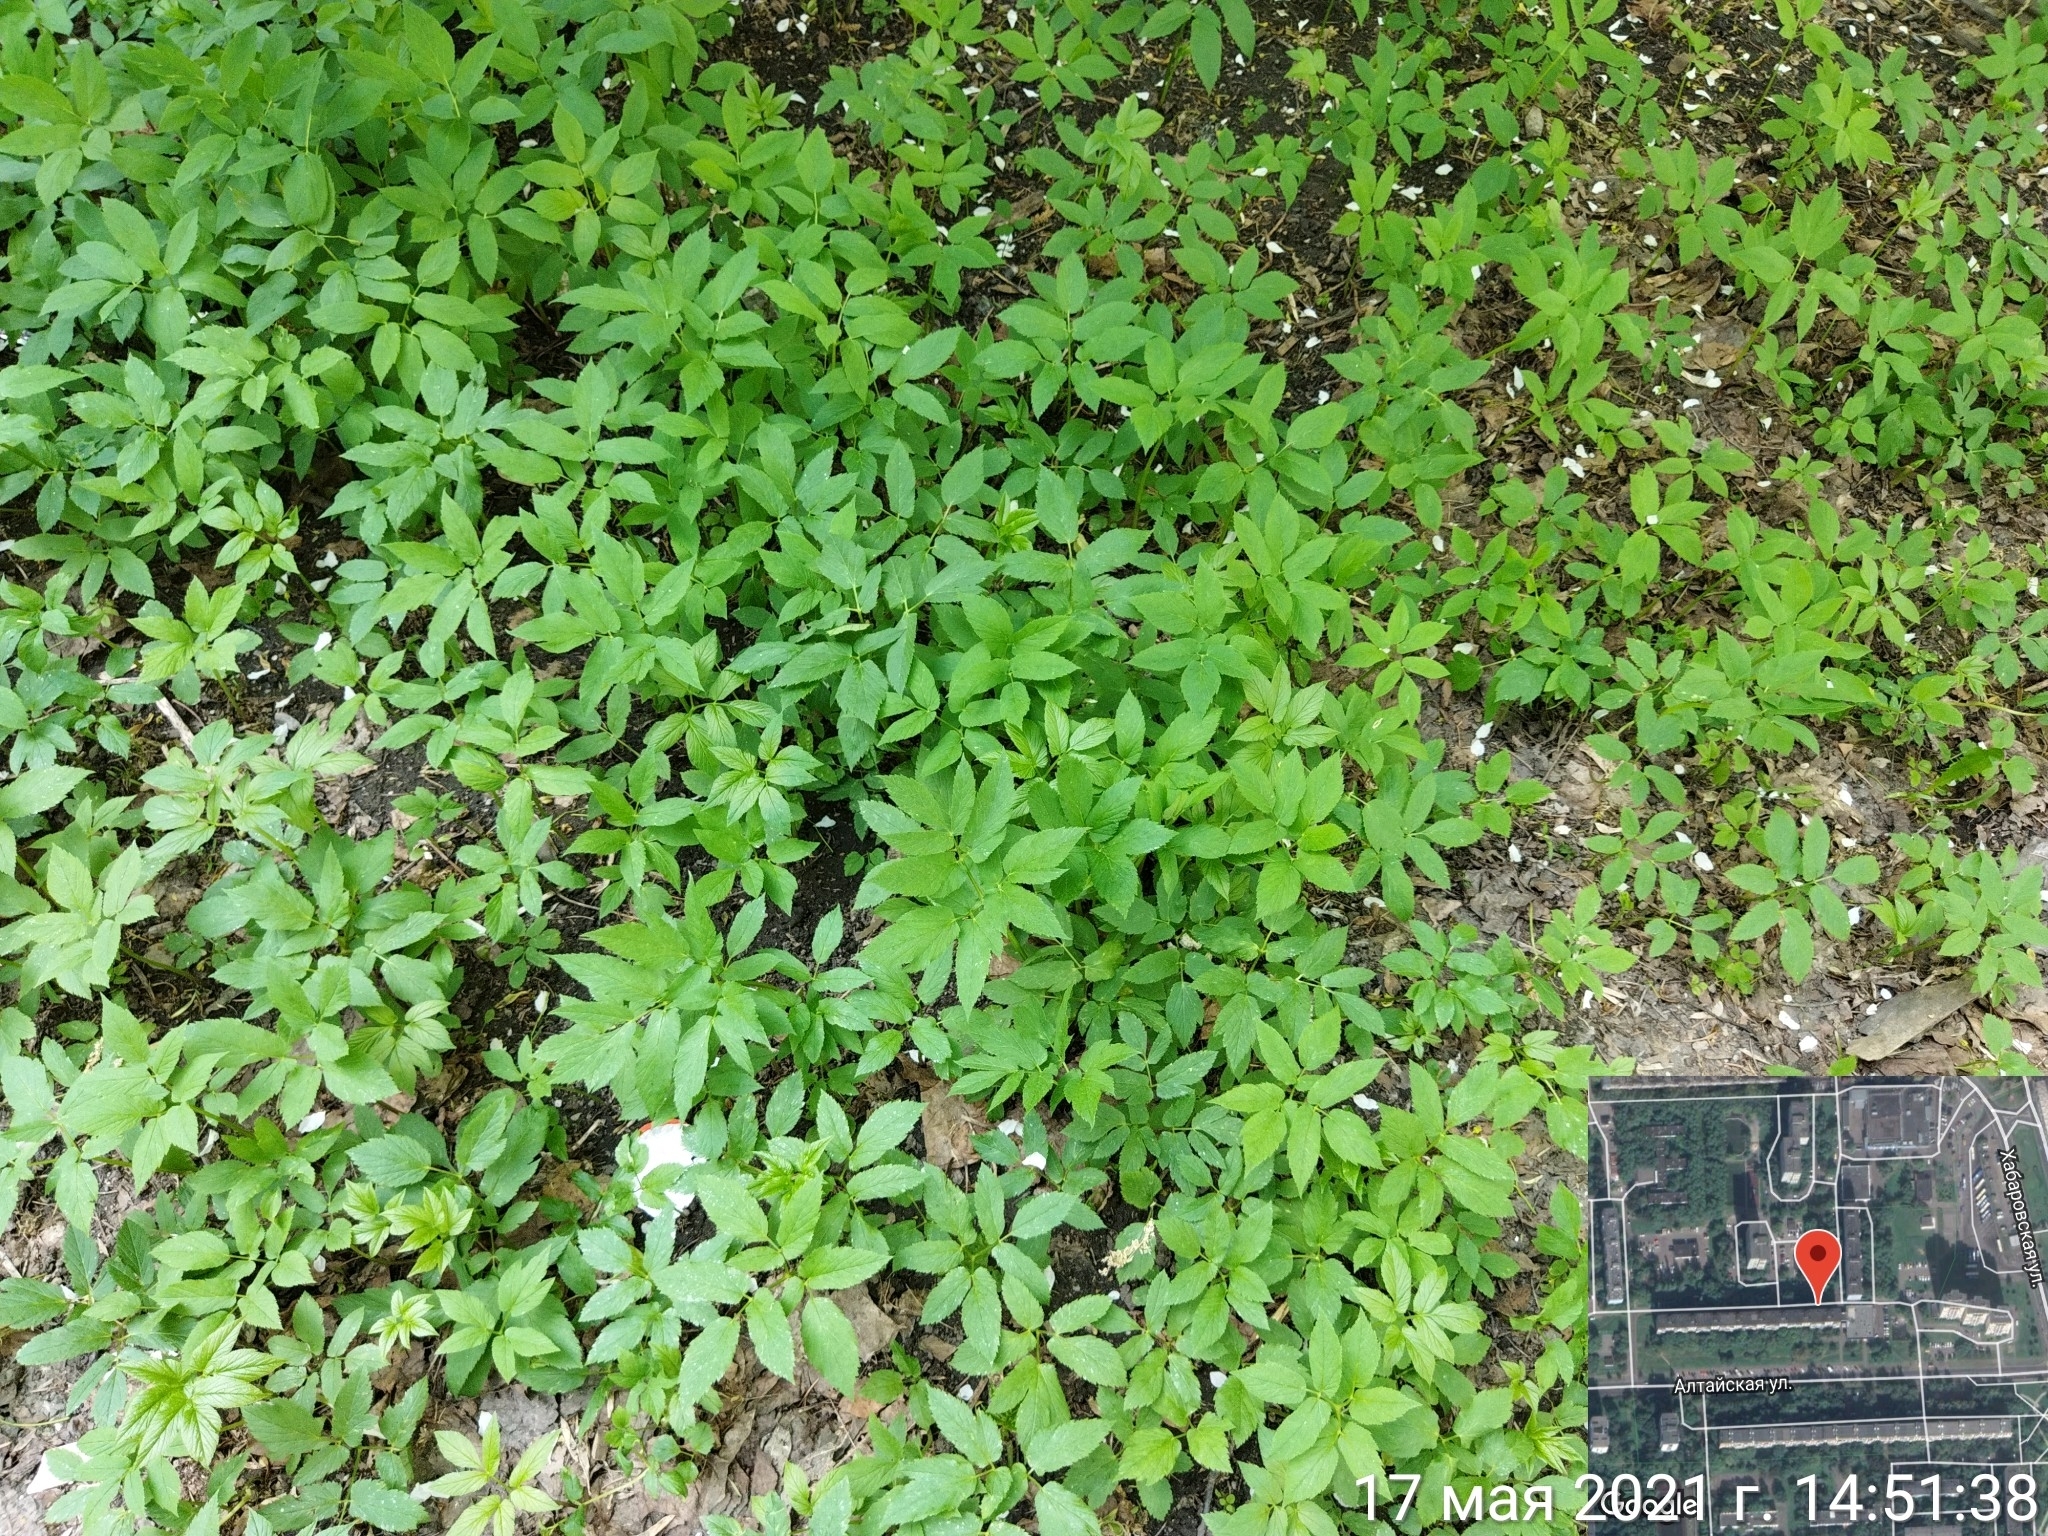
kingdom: Plantae
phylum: Tracheophyta
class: Magnoliopsida
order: Apiales
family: Apiaceae
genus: Aegopodium
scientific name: Aegopodium podagraria
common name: Ground-elder
